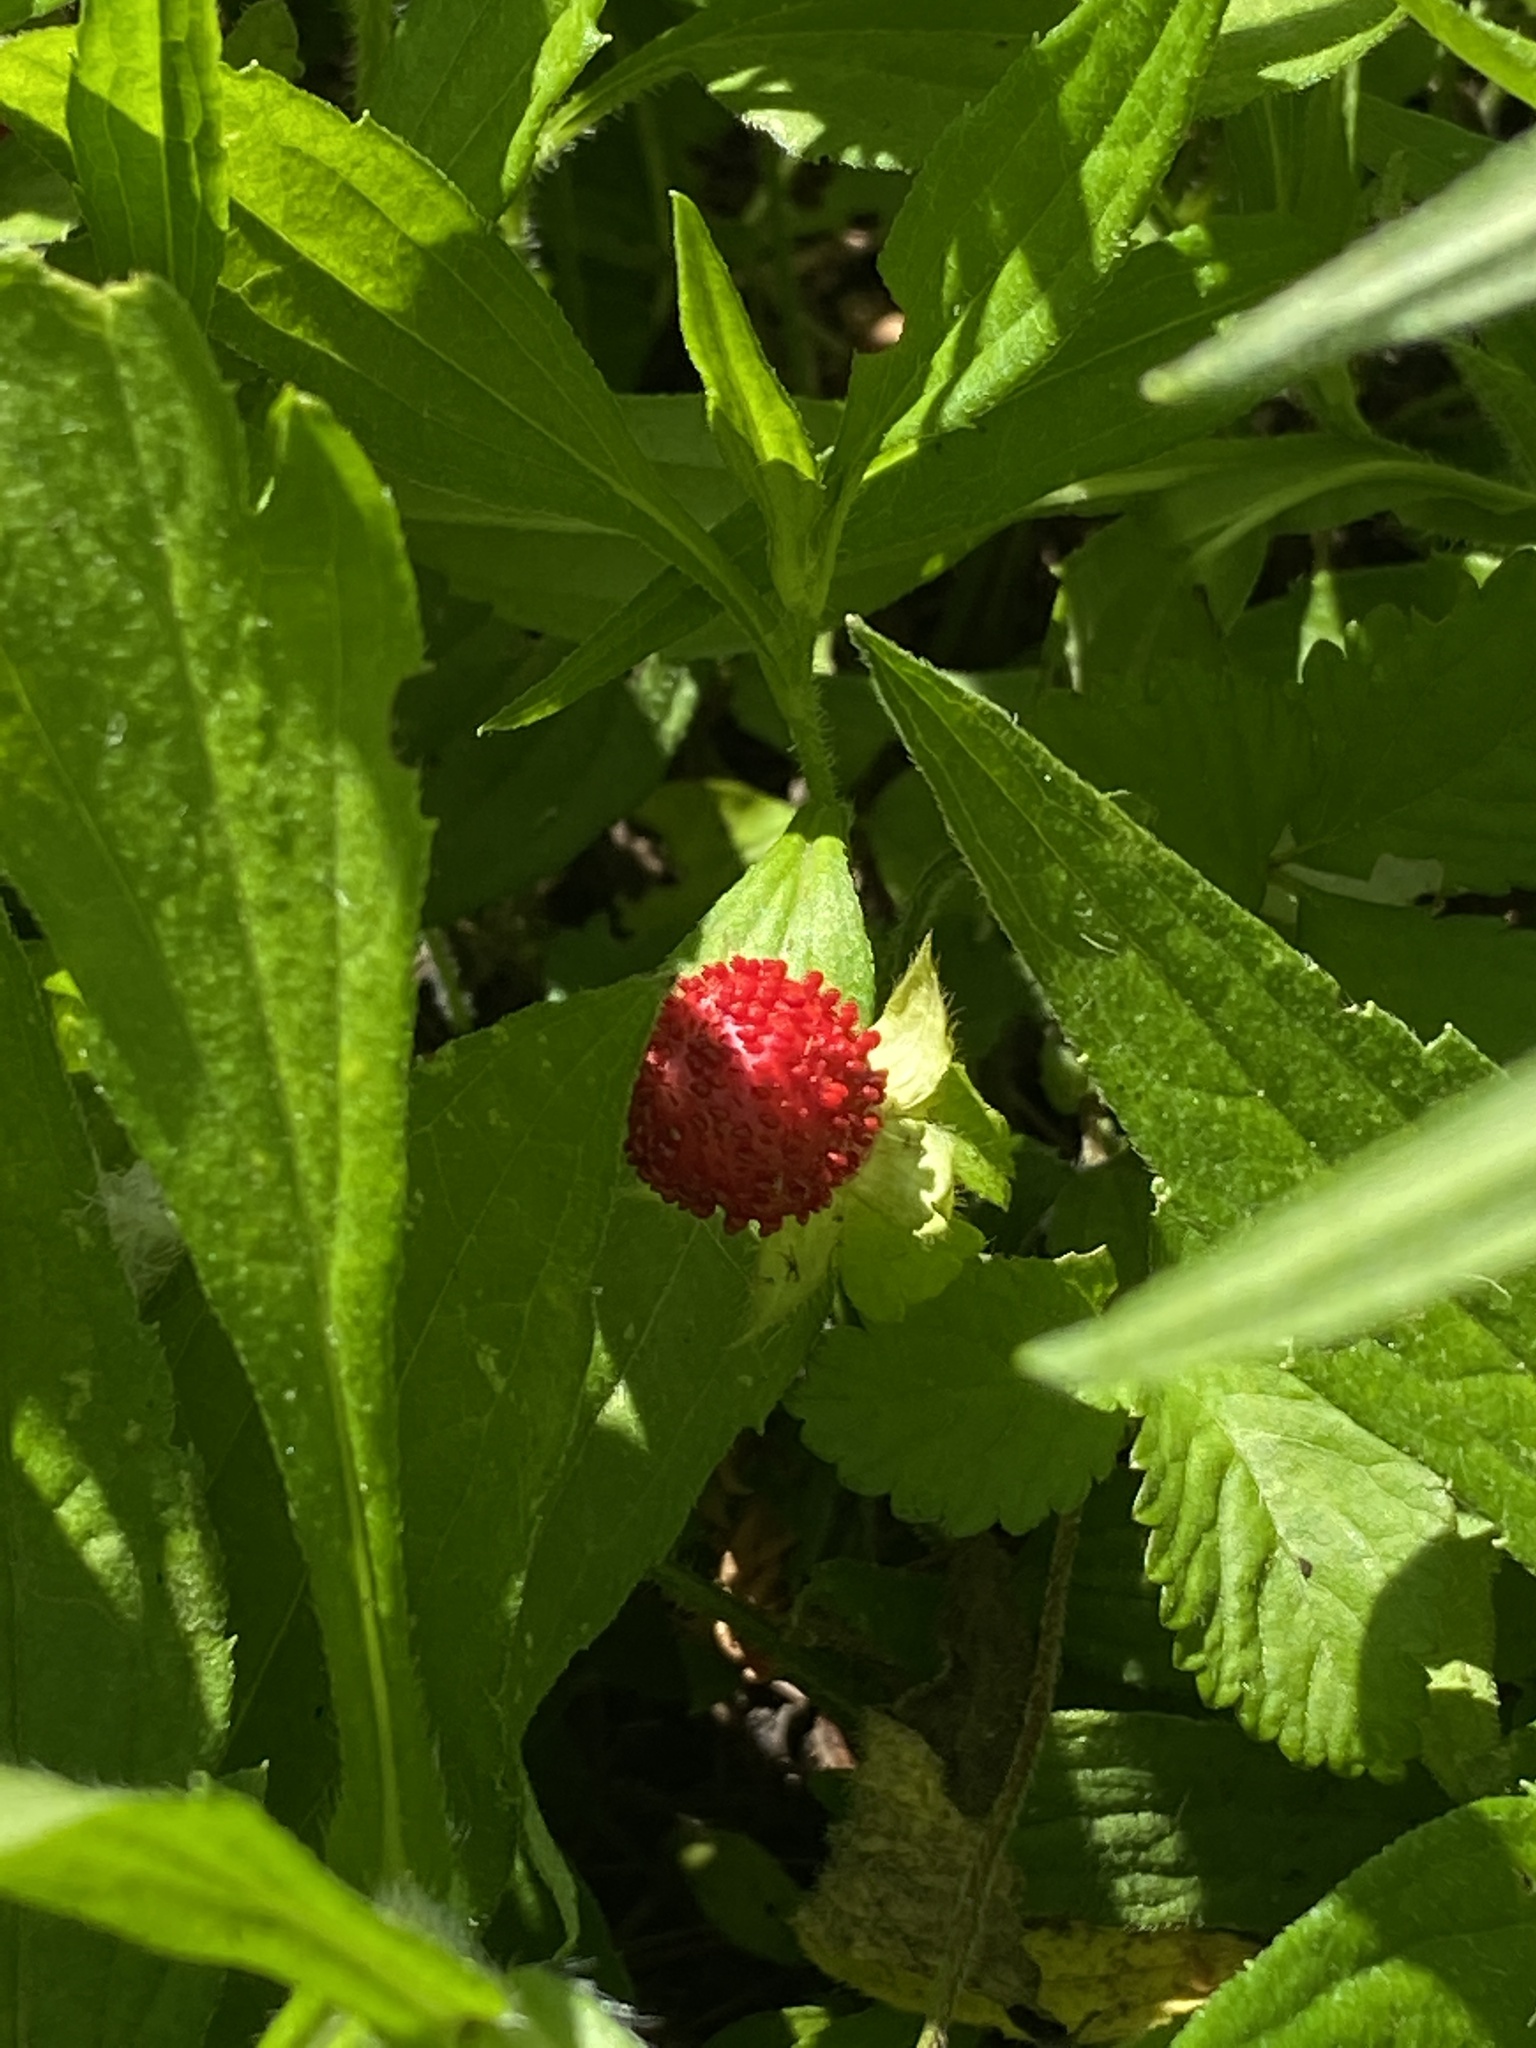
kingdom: Plantae
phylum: Tracheophyta
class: Magnoliopsida
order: Rosales
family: Rosaceae
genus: Potentilla
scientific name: Potentilla indica
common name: Yellow-flowered strawberry
